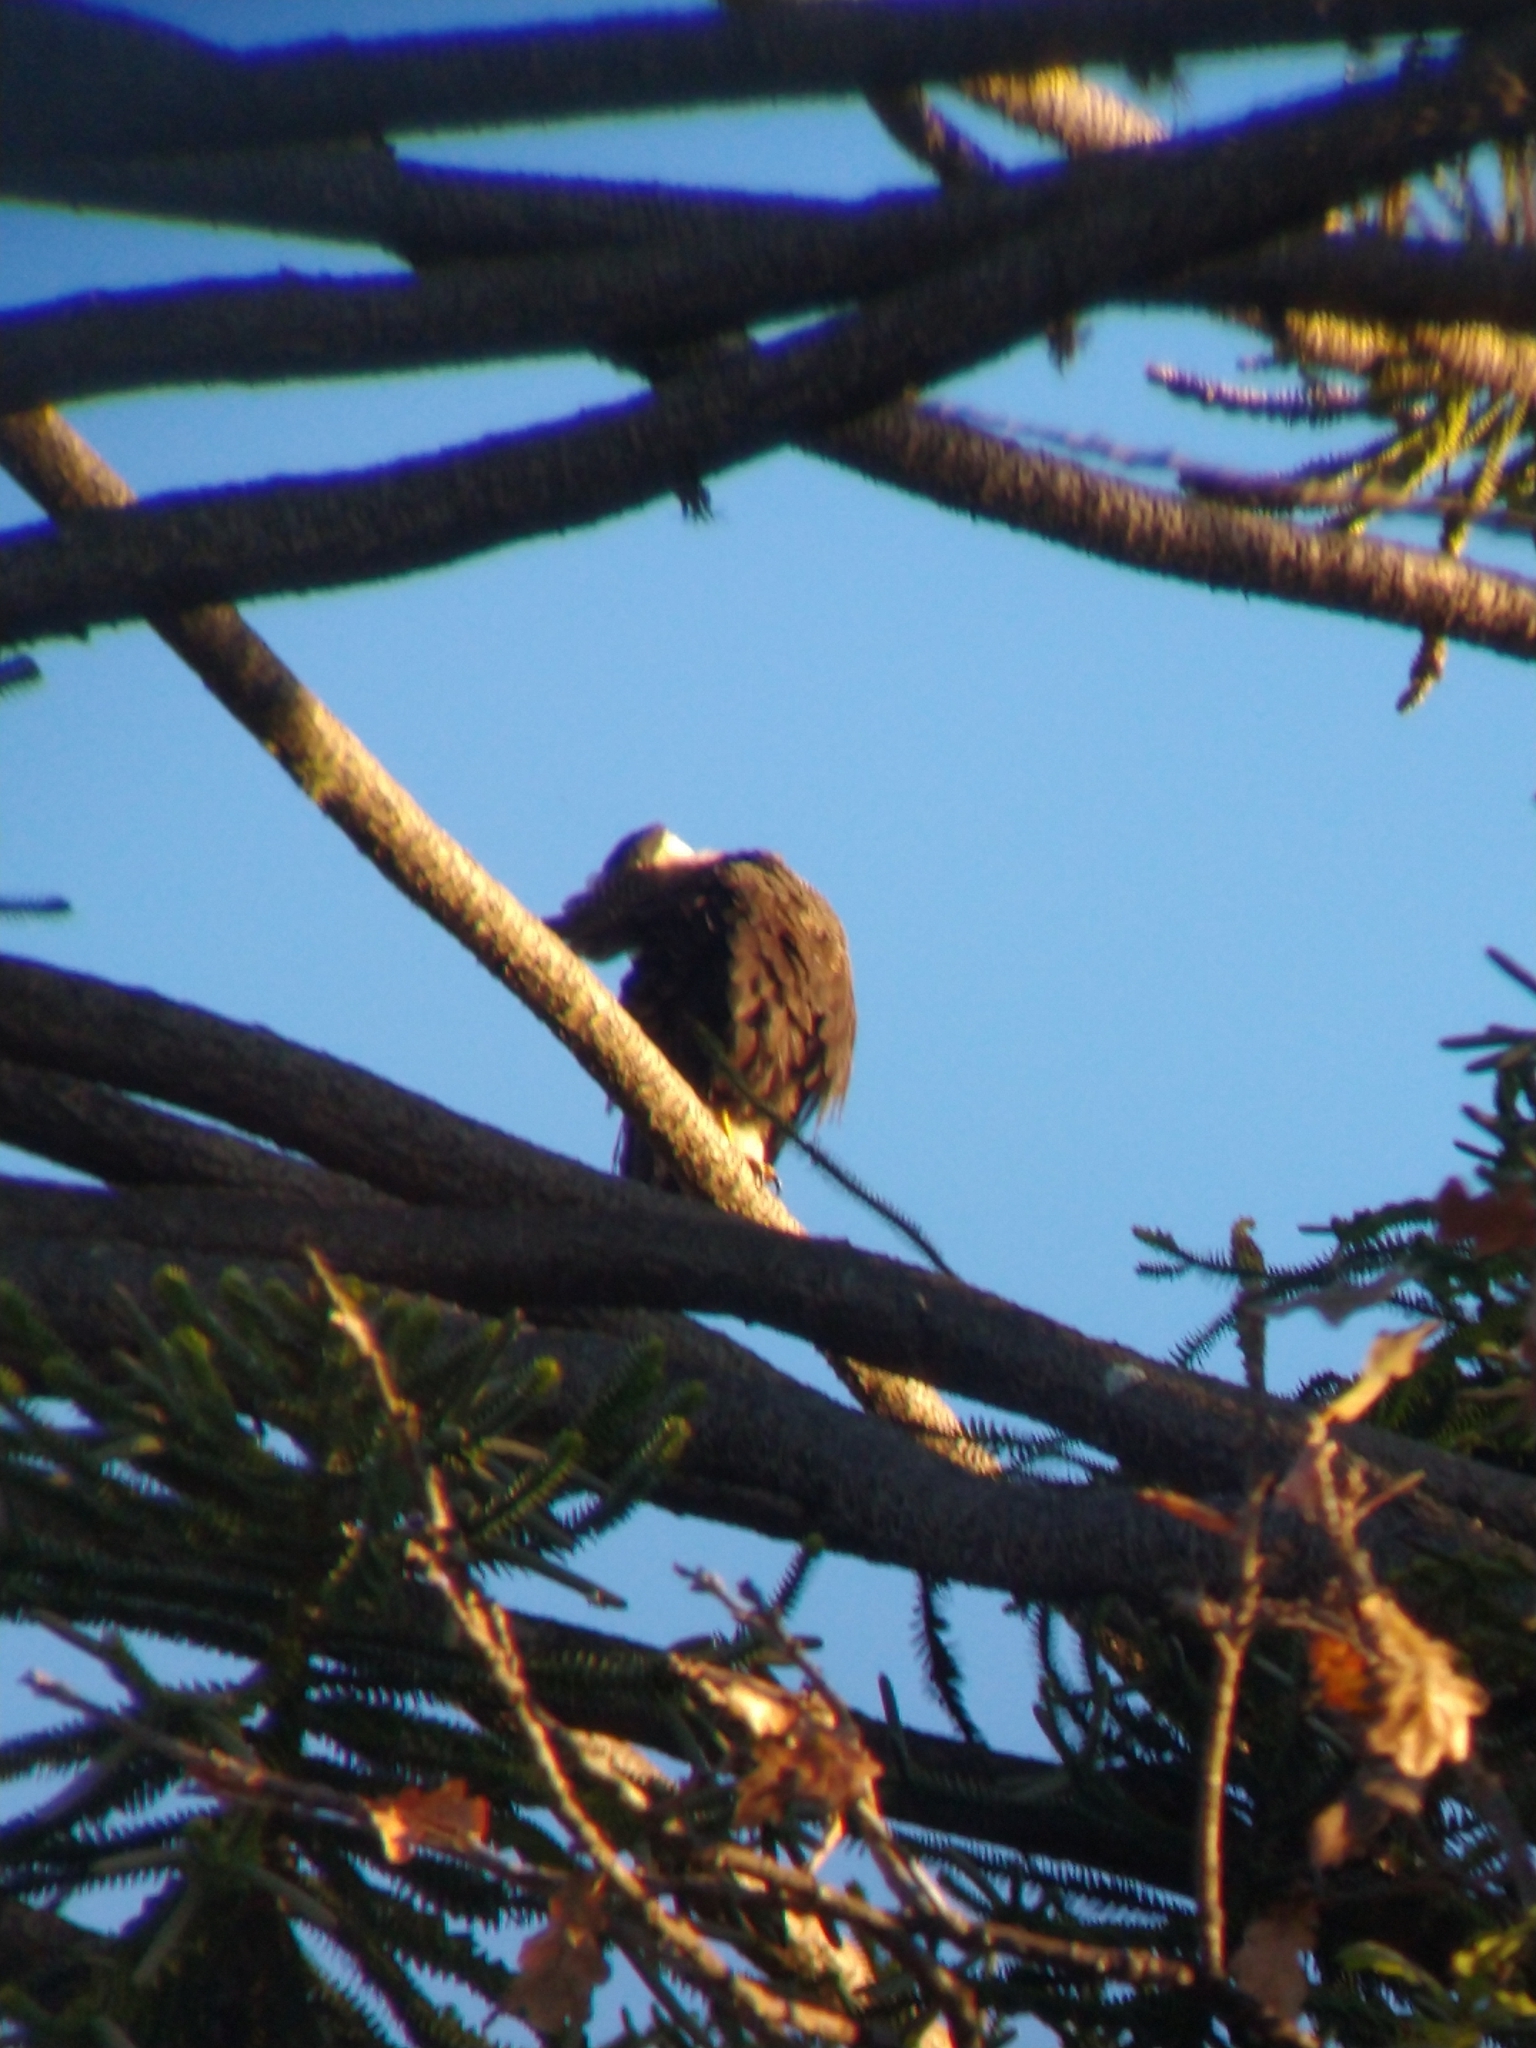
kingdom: Animalia
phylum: Chordata
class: Aves
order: Falconiformes
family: Falconidae
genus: Caracara
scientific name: Caracara plancus
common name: Southern caracara
